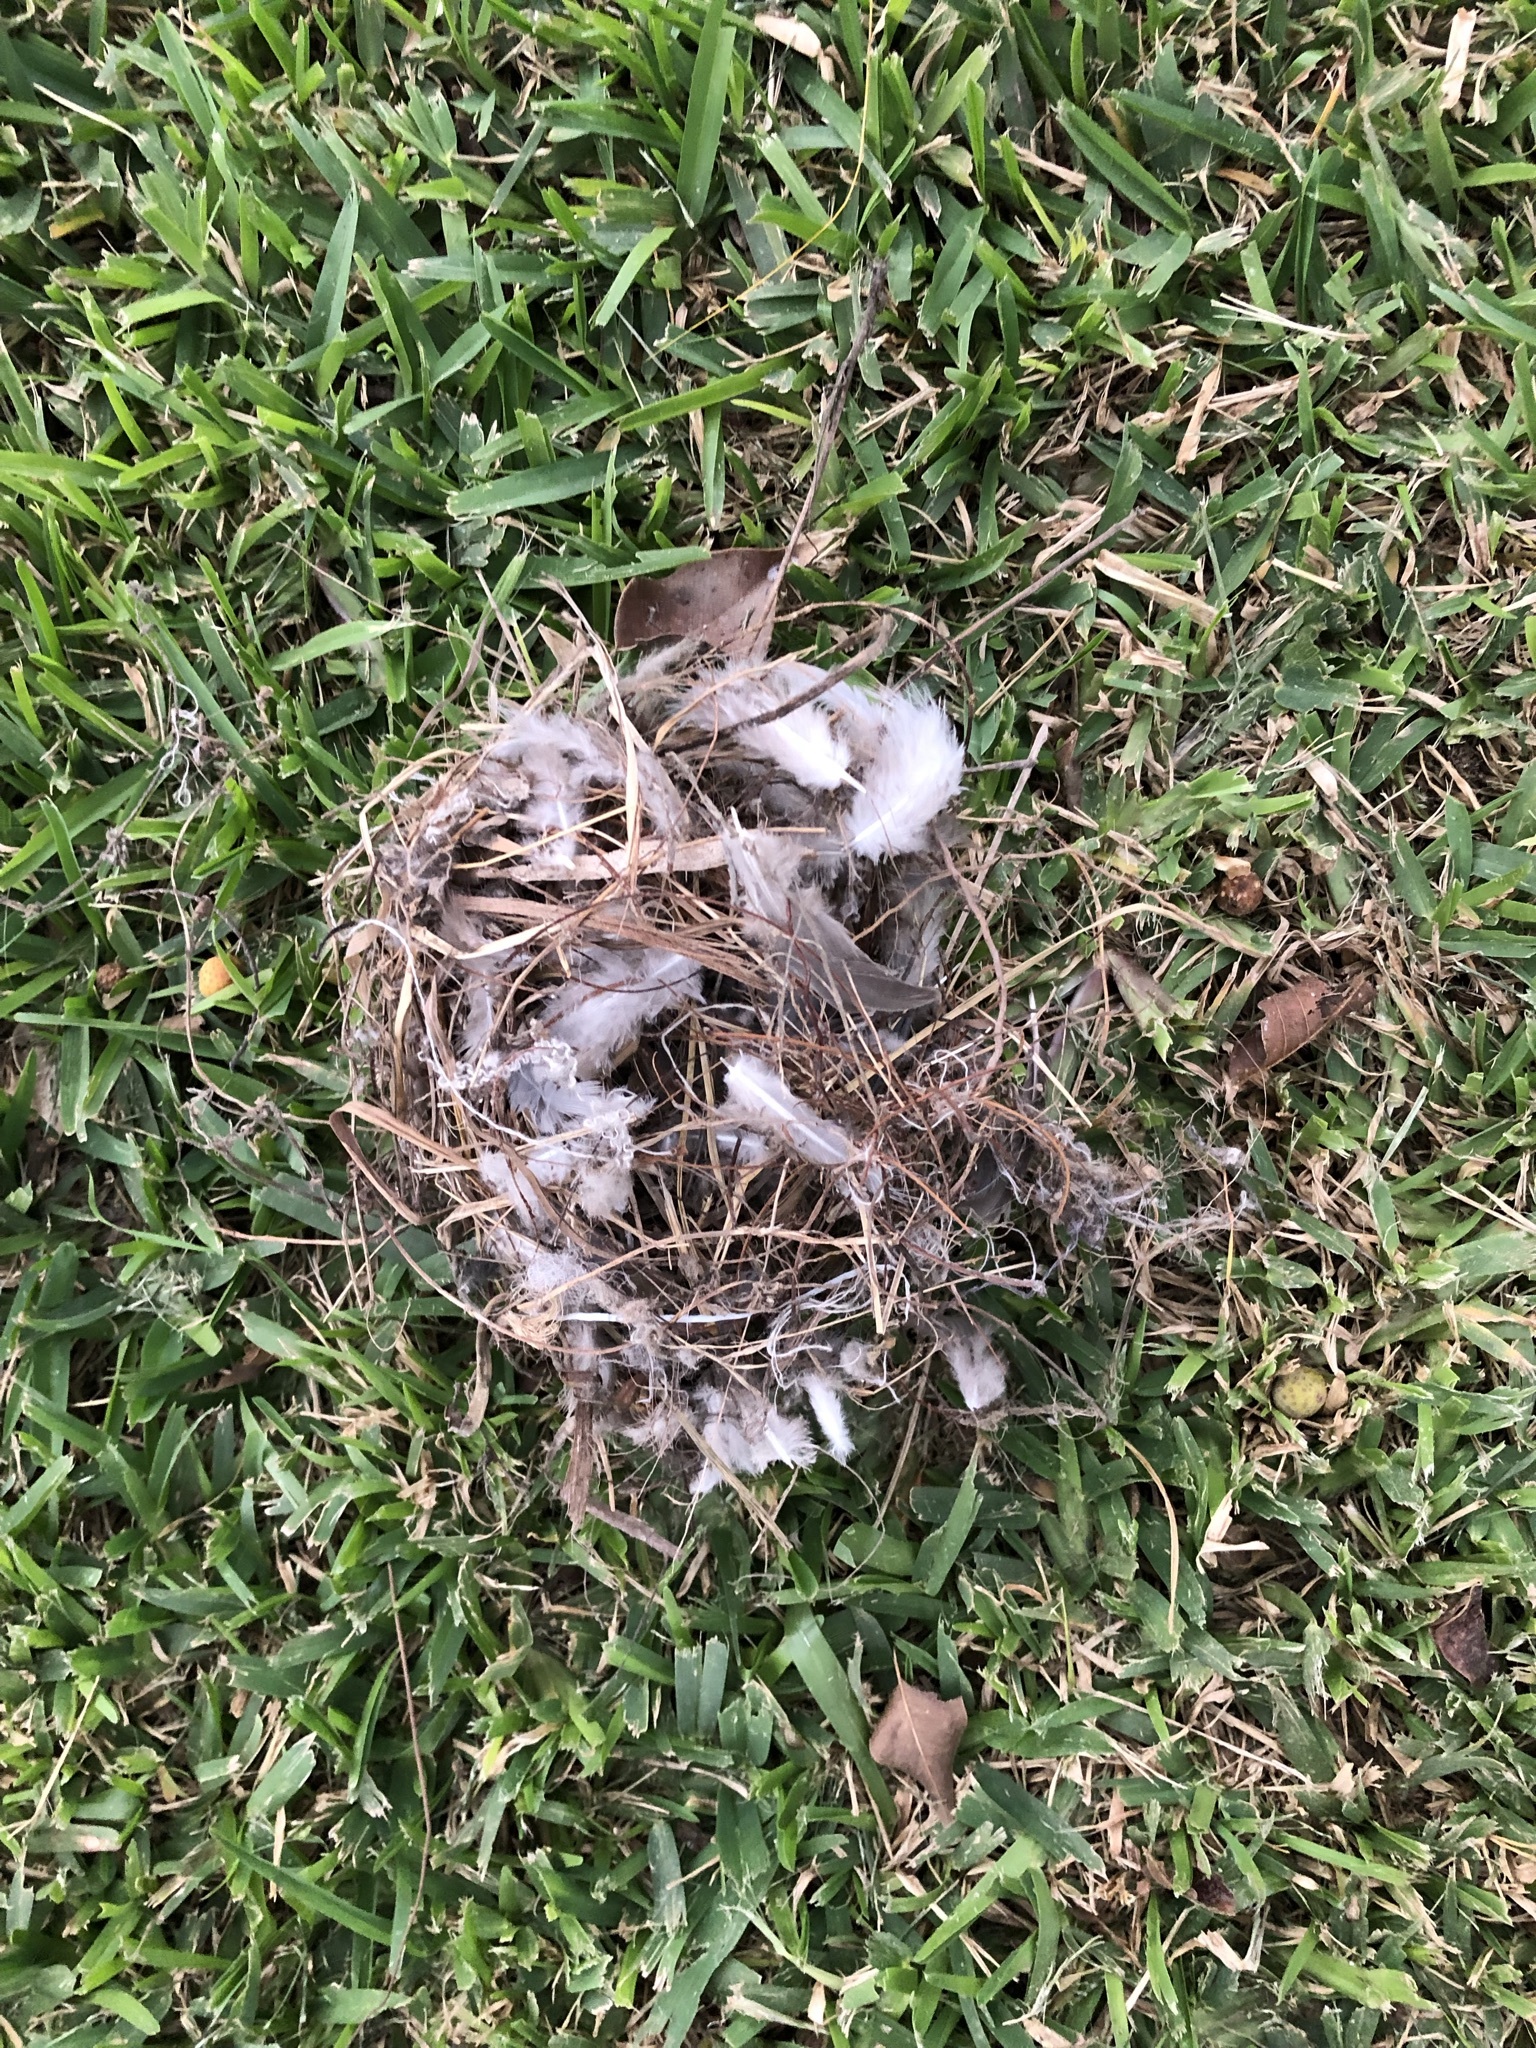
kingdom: Animalia
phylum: Chordata
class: Aves
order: Passeriformes
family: Thraupidae
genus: Coereba
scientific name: Coereba flaveola
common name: Bananaquit
